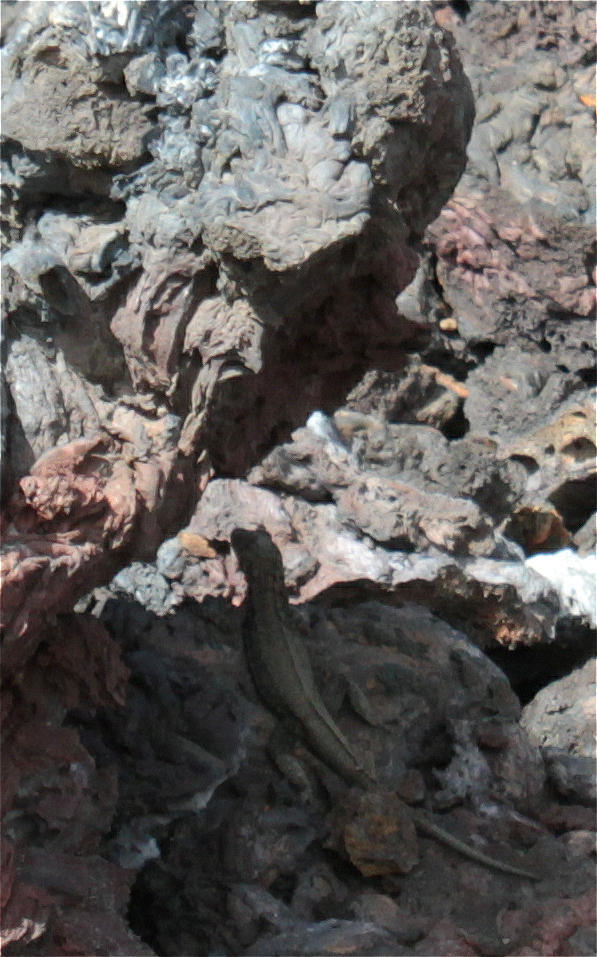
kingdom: Animalia
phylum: Chordata
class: Squamata
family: Tropiduridae
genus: Microlophus
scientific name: Microlophus albemarlensis
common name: Galapagos lava lizard
